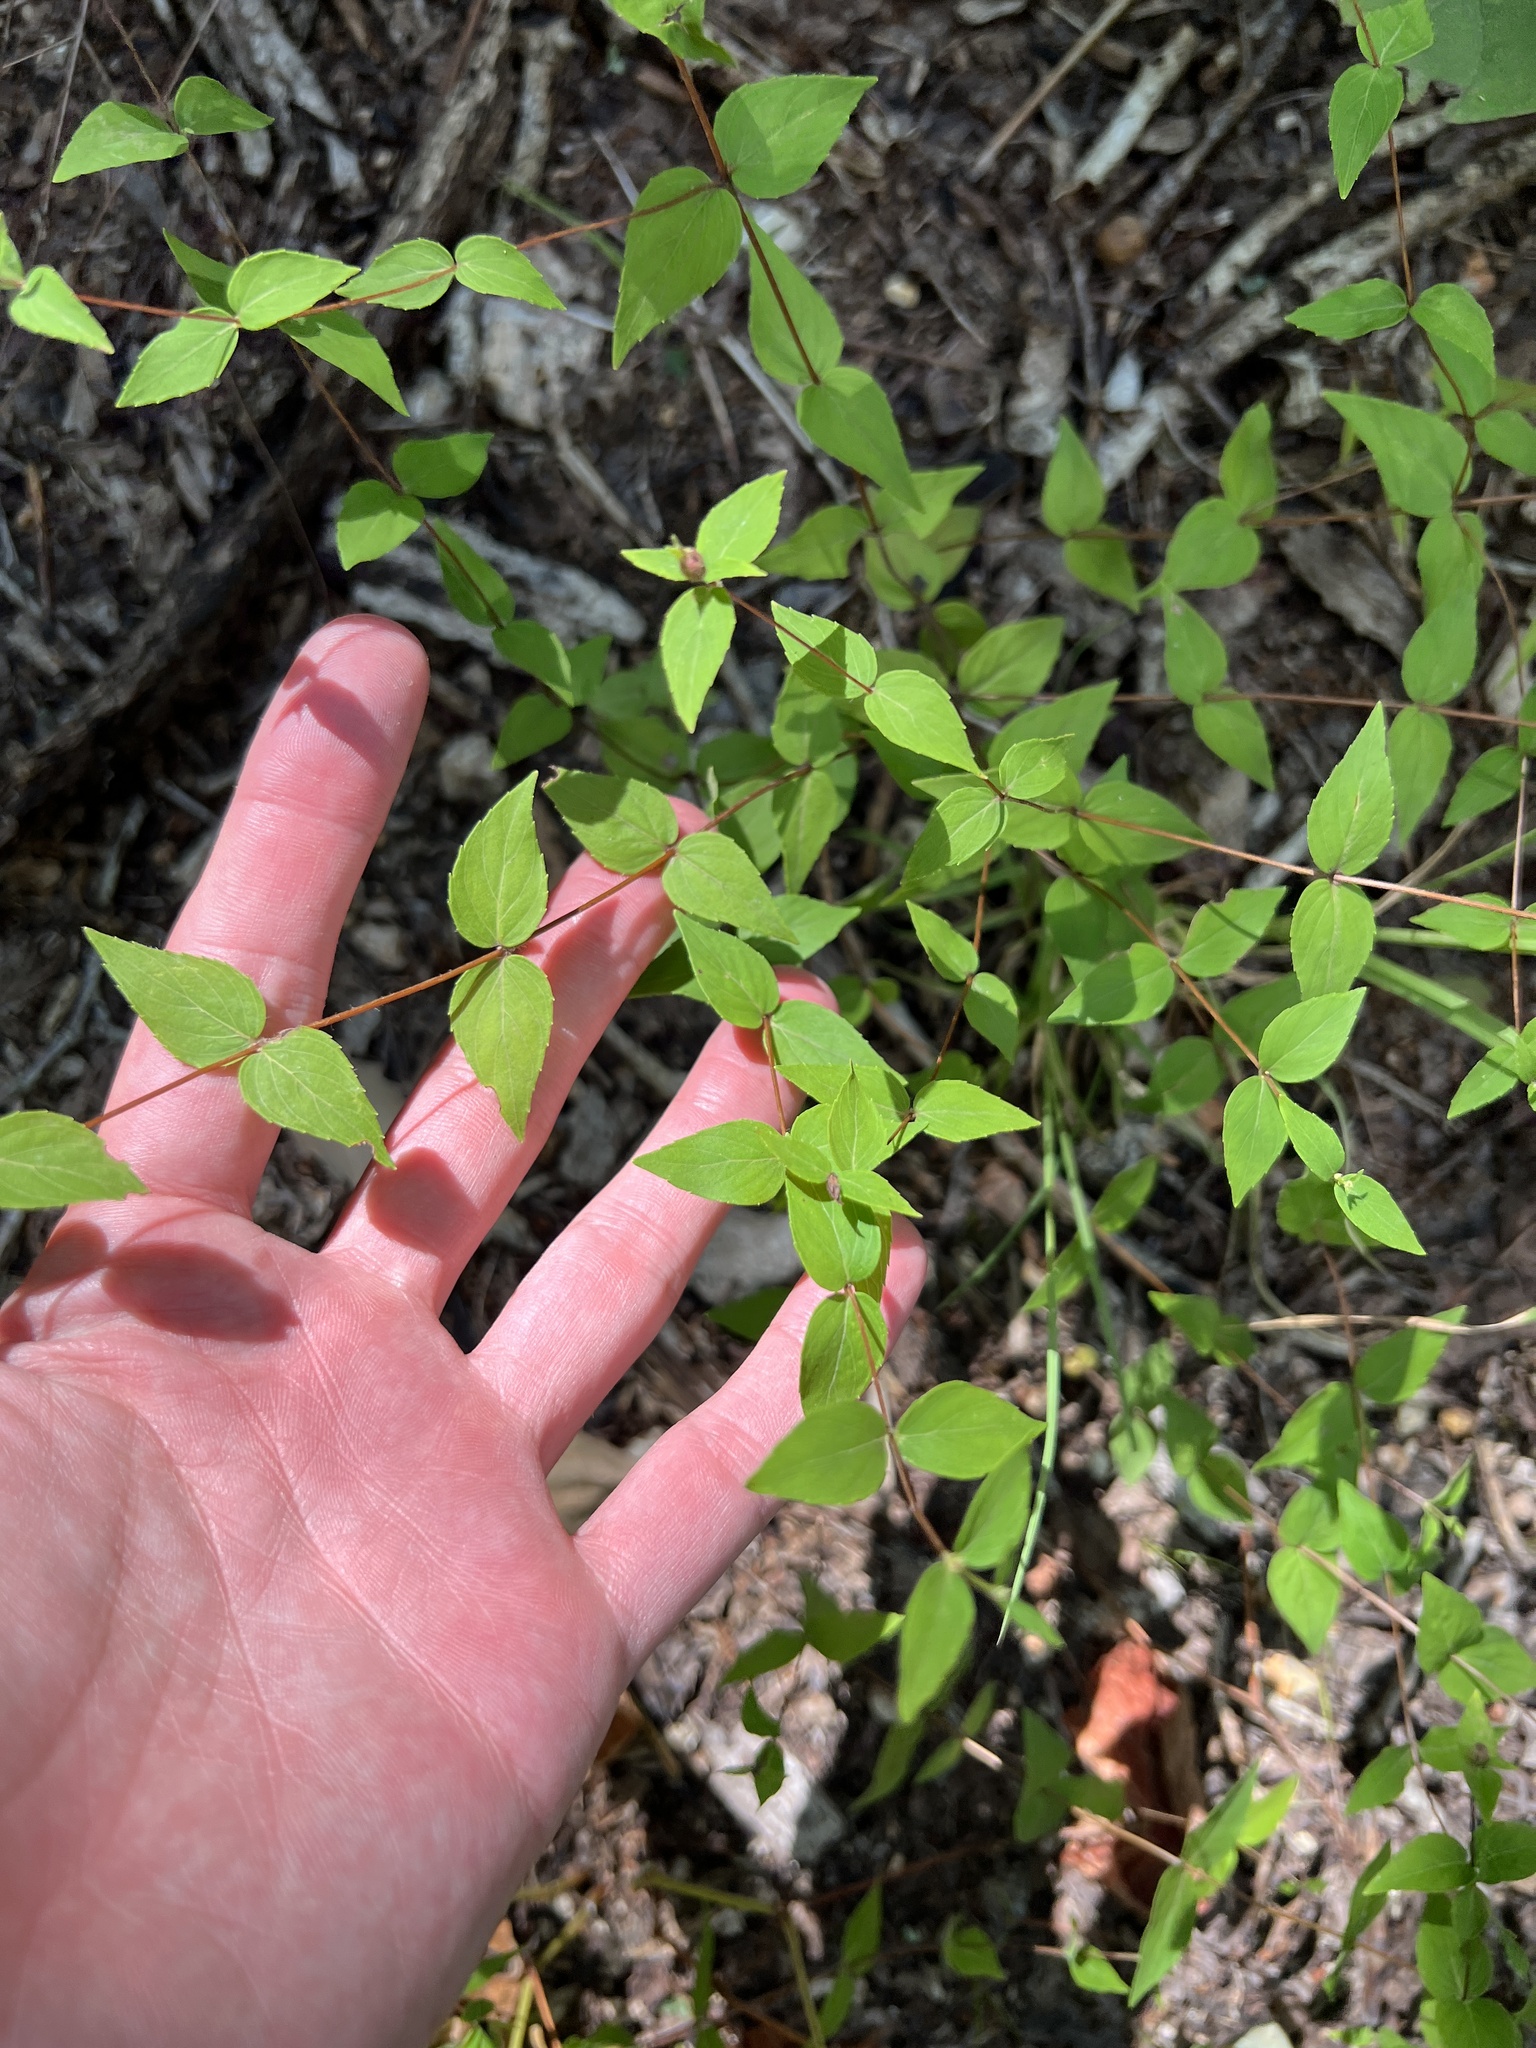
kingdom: Plantae
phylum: Tracheophyta
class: Magnoliopsida
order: Lamiales
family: Lamiaceae
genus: Cunila
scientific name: Cunila origanoides
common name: American dittany
